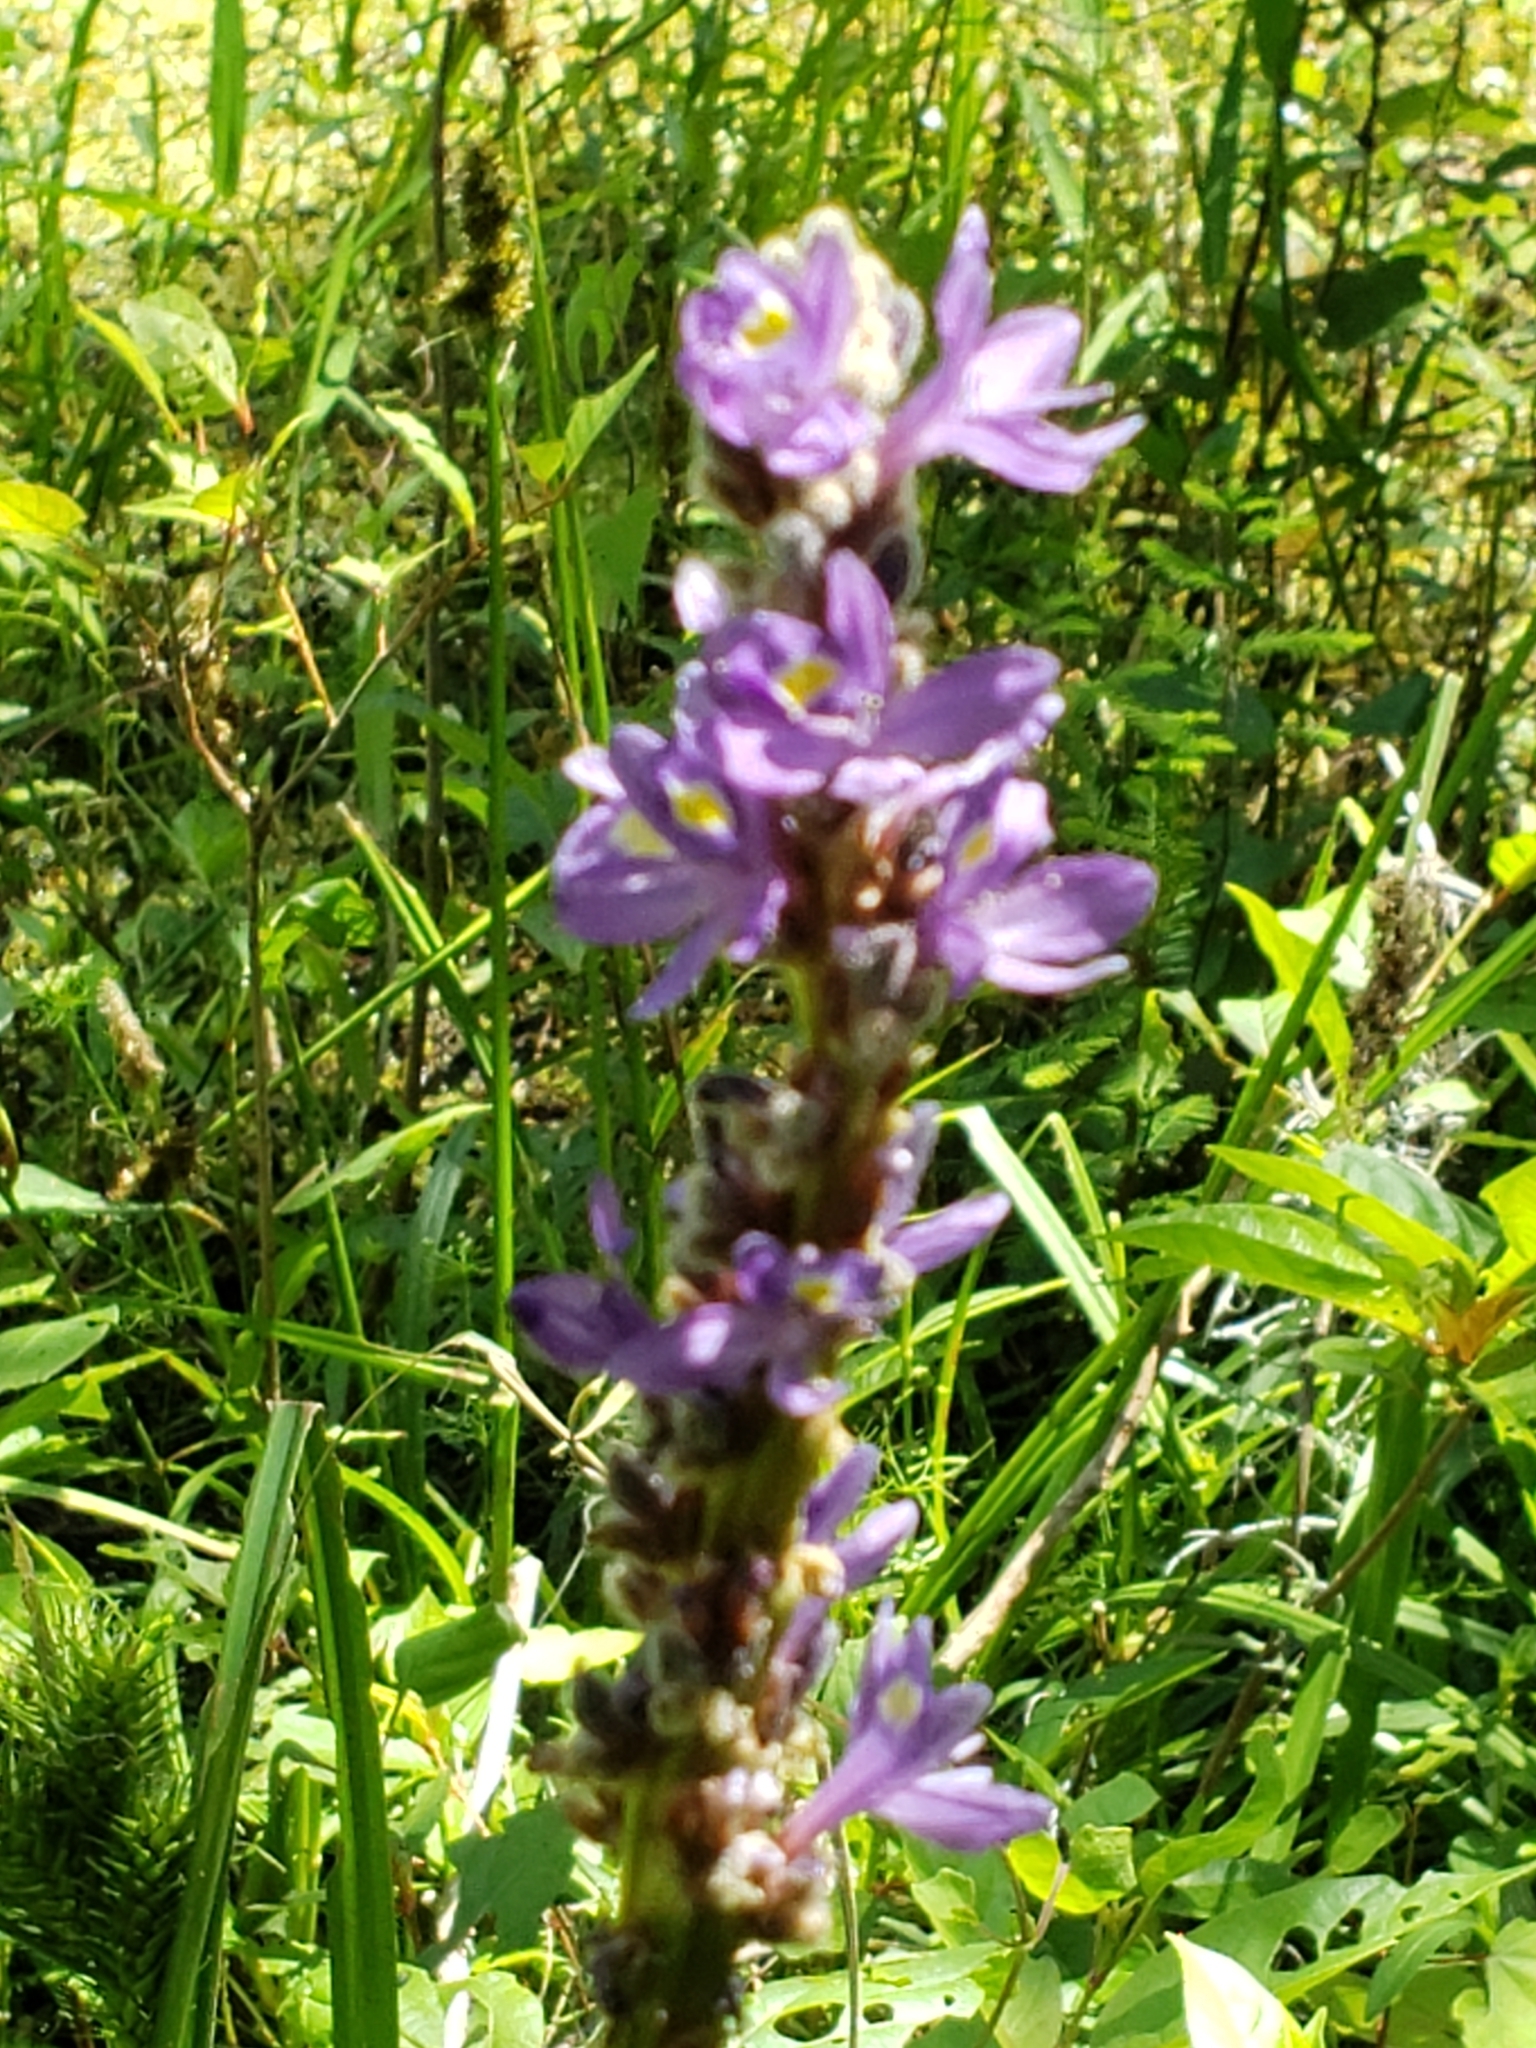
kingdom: Plantae
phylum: Tracheophyta
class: Liliopsida
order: Commelinales
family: Pontederiaceae
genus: Pontederia
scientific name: Pontederia cordata
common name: Pickerelweed
